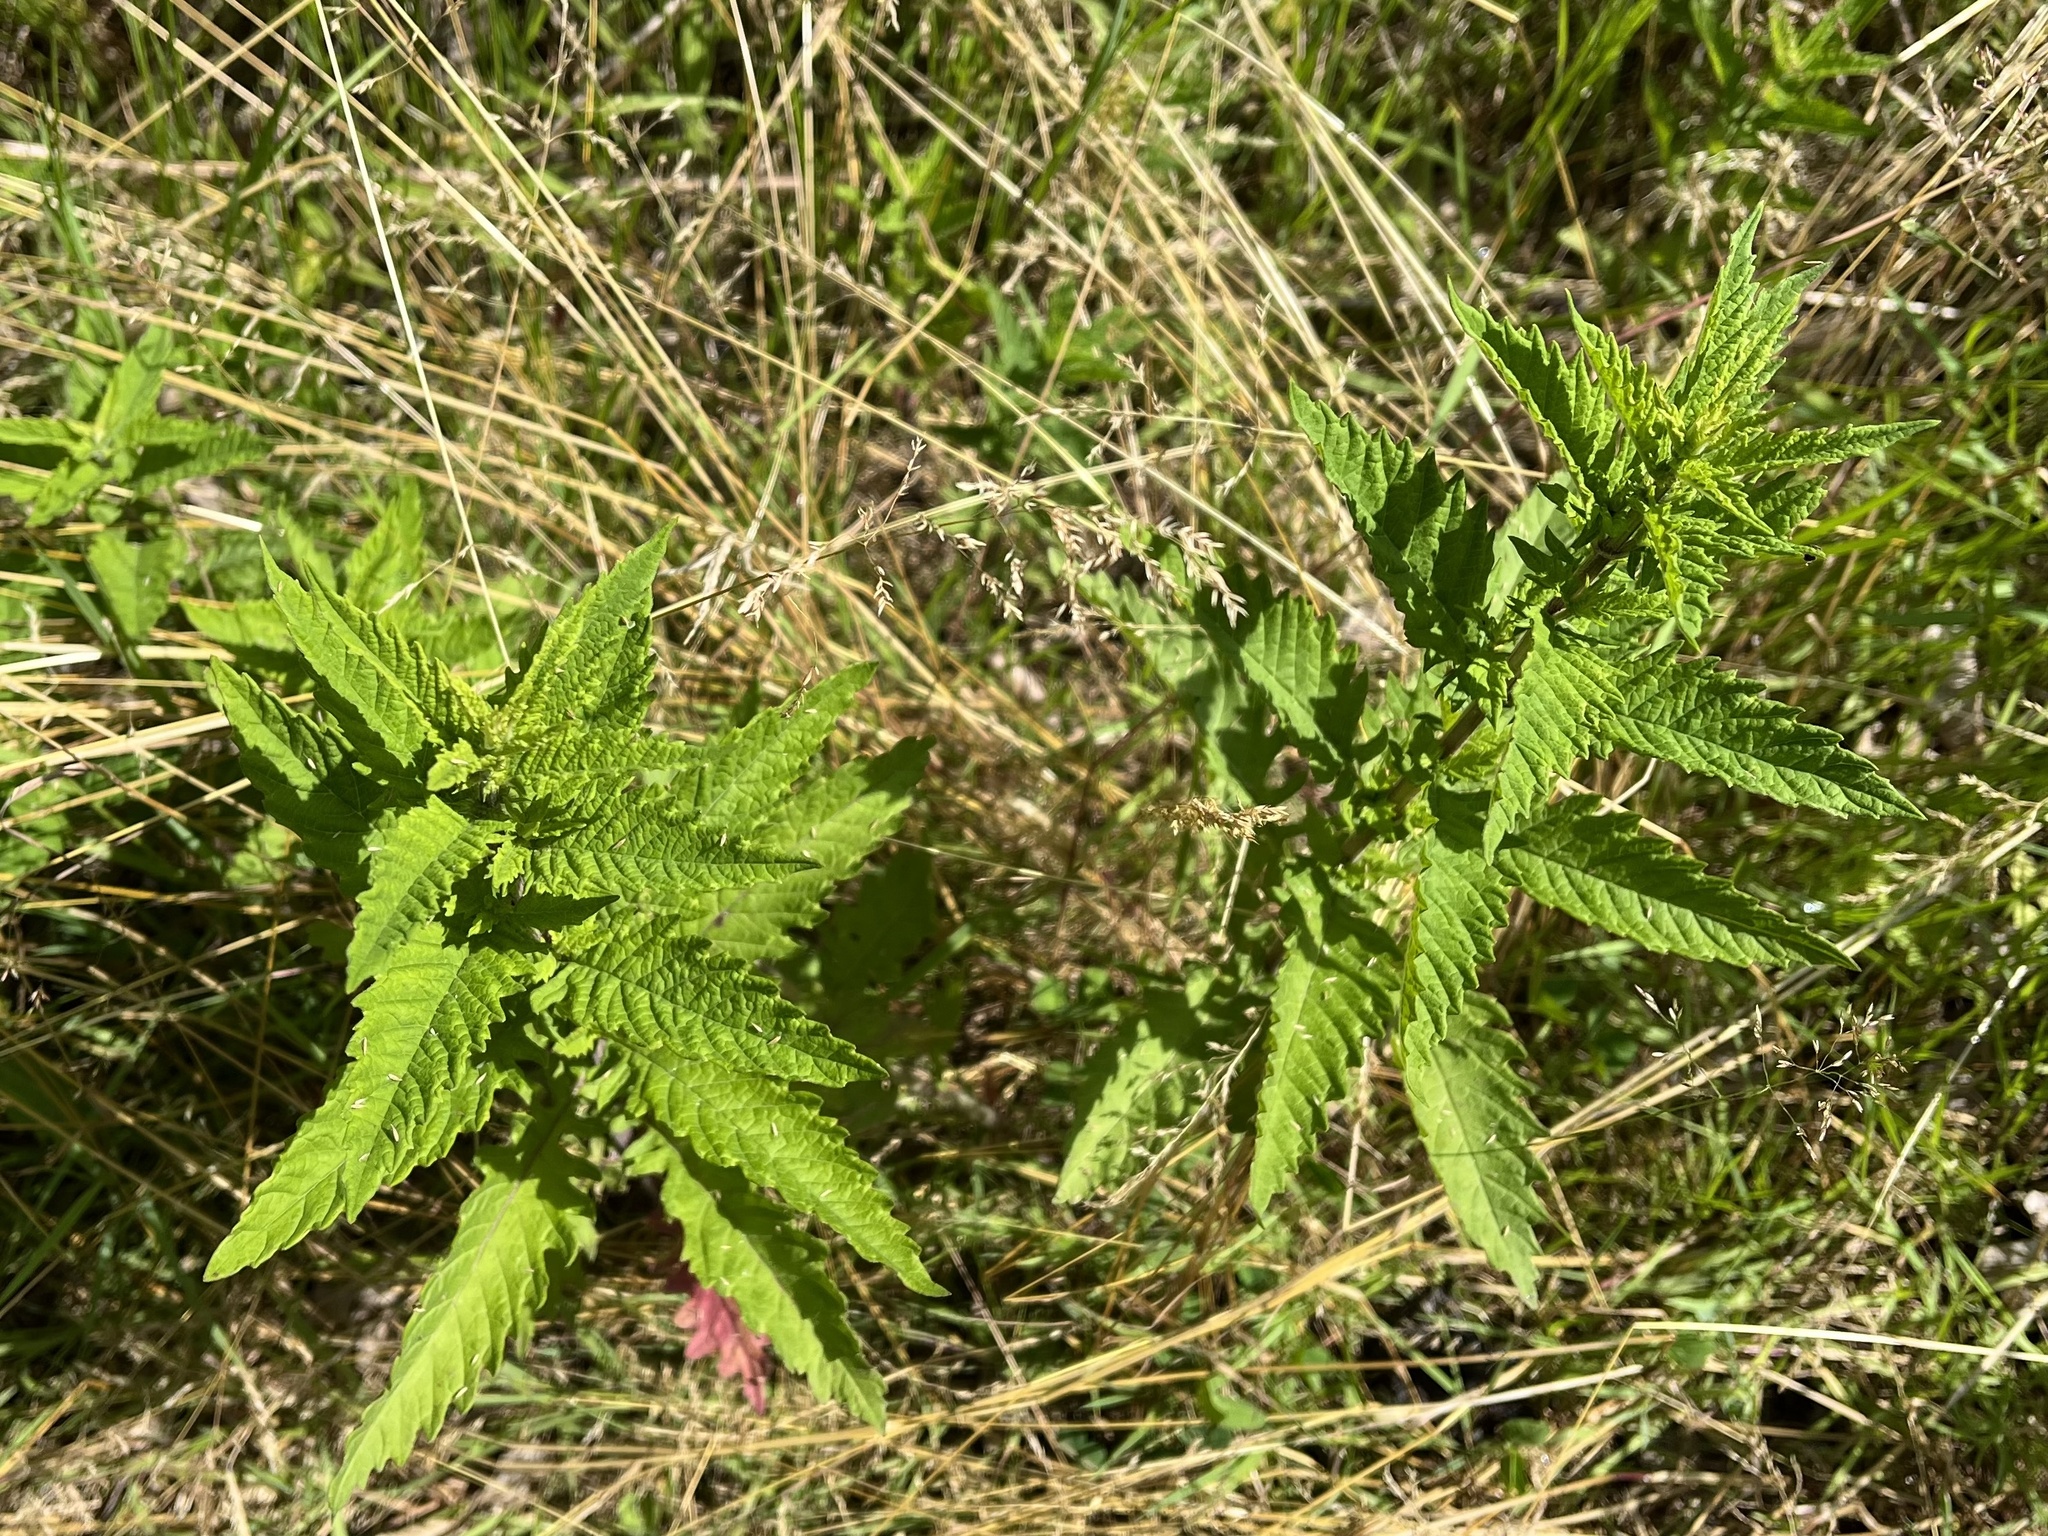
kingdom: Plantae
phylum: Tracheophyta
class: Magnoliopsida
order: Lamiales
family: Lamiaceae
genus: Lycopus
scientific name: Lycopus europaeus
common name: European bugleweed
